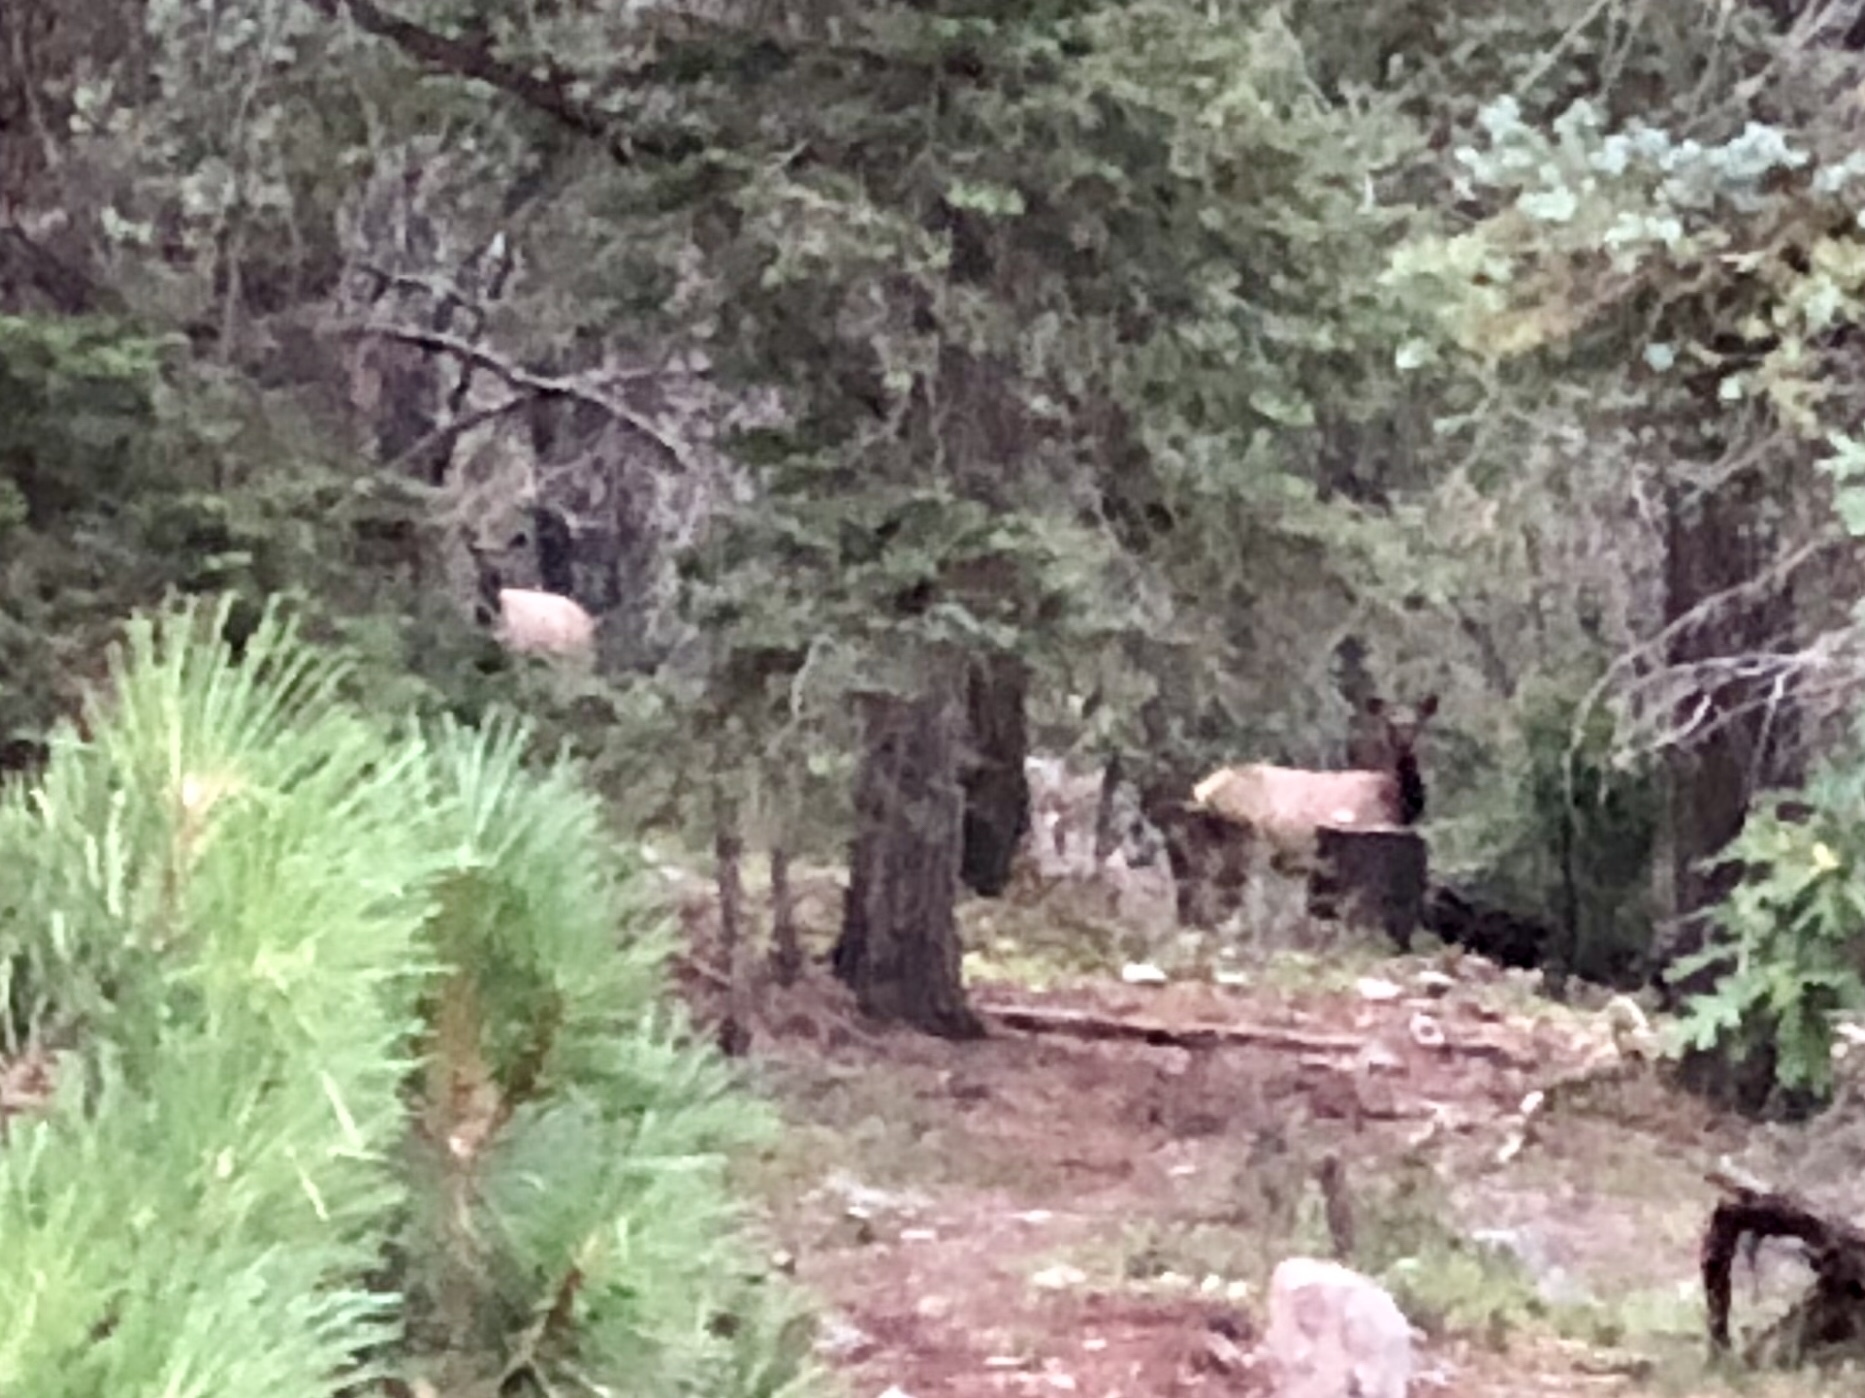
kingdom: Animalia
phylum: Chordata
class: Mammalia
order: Artiodactyla
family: Cervidae
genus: Cervus
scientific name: Cervus elaphus
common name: Red deer
